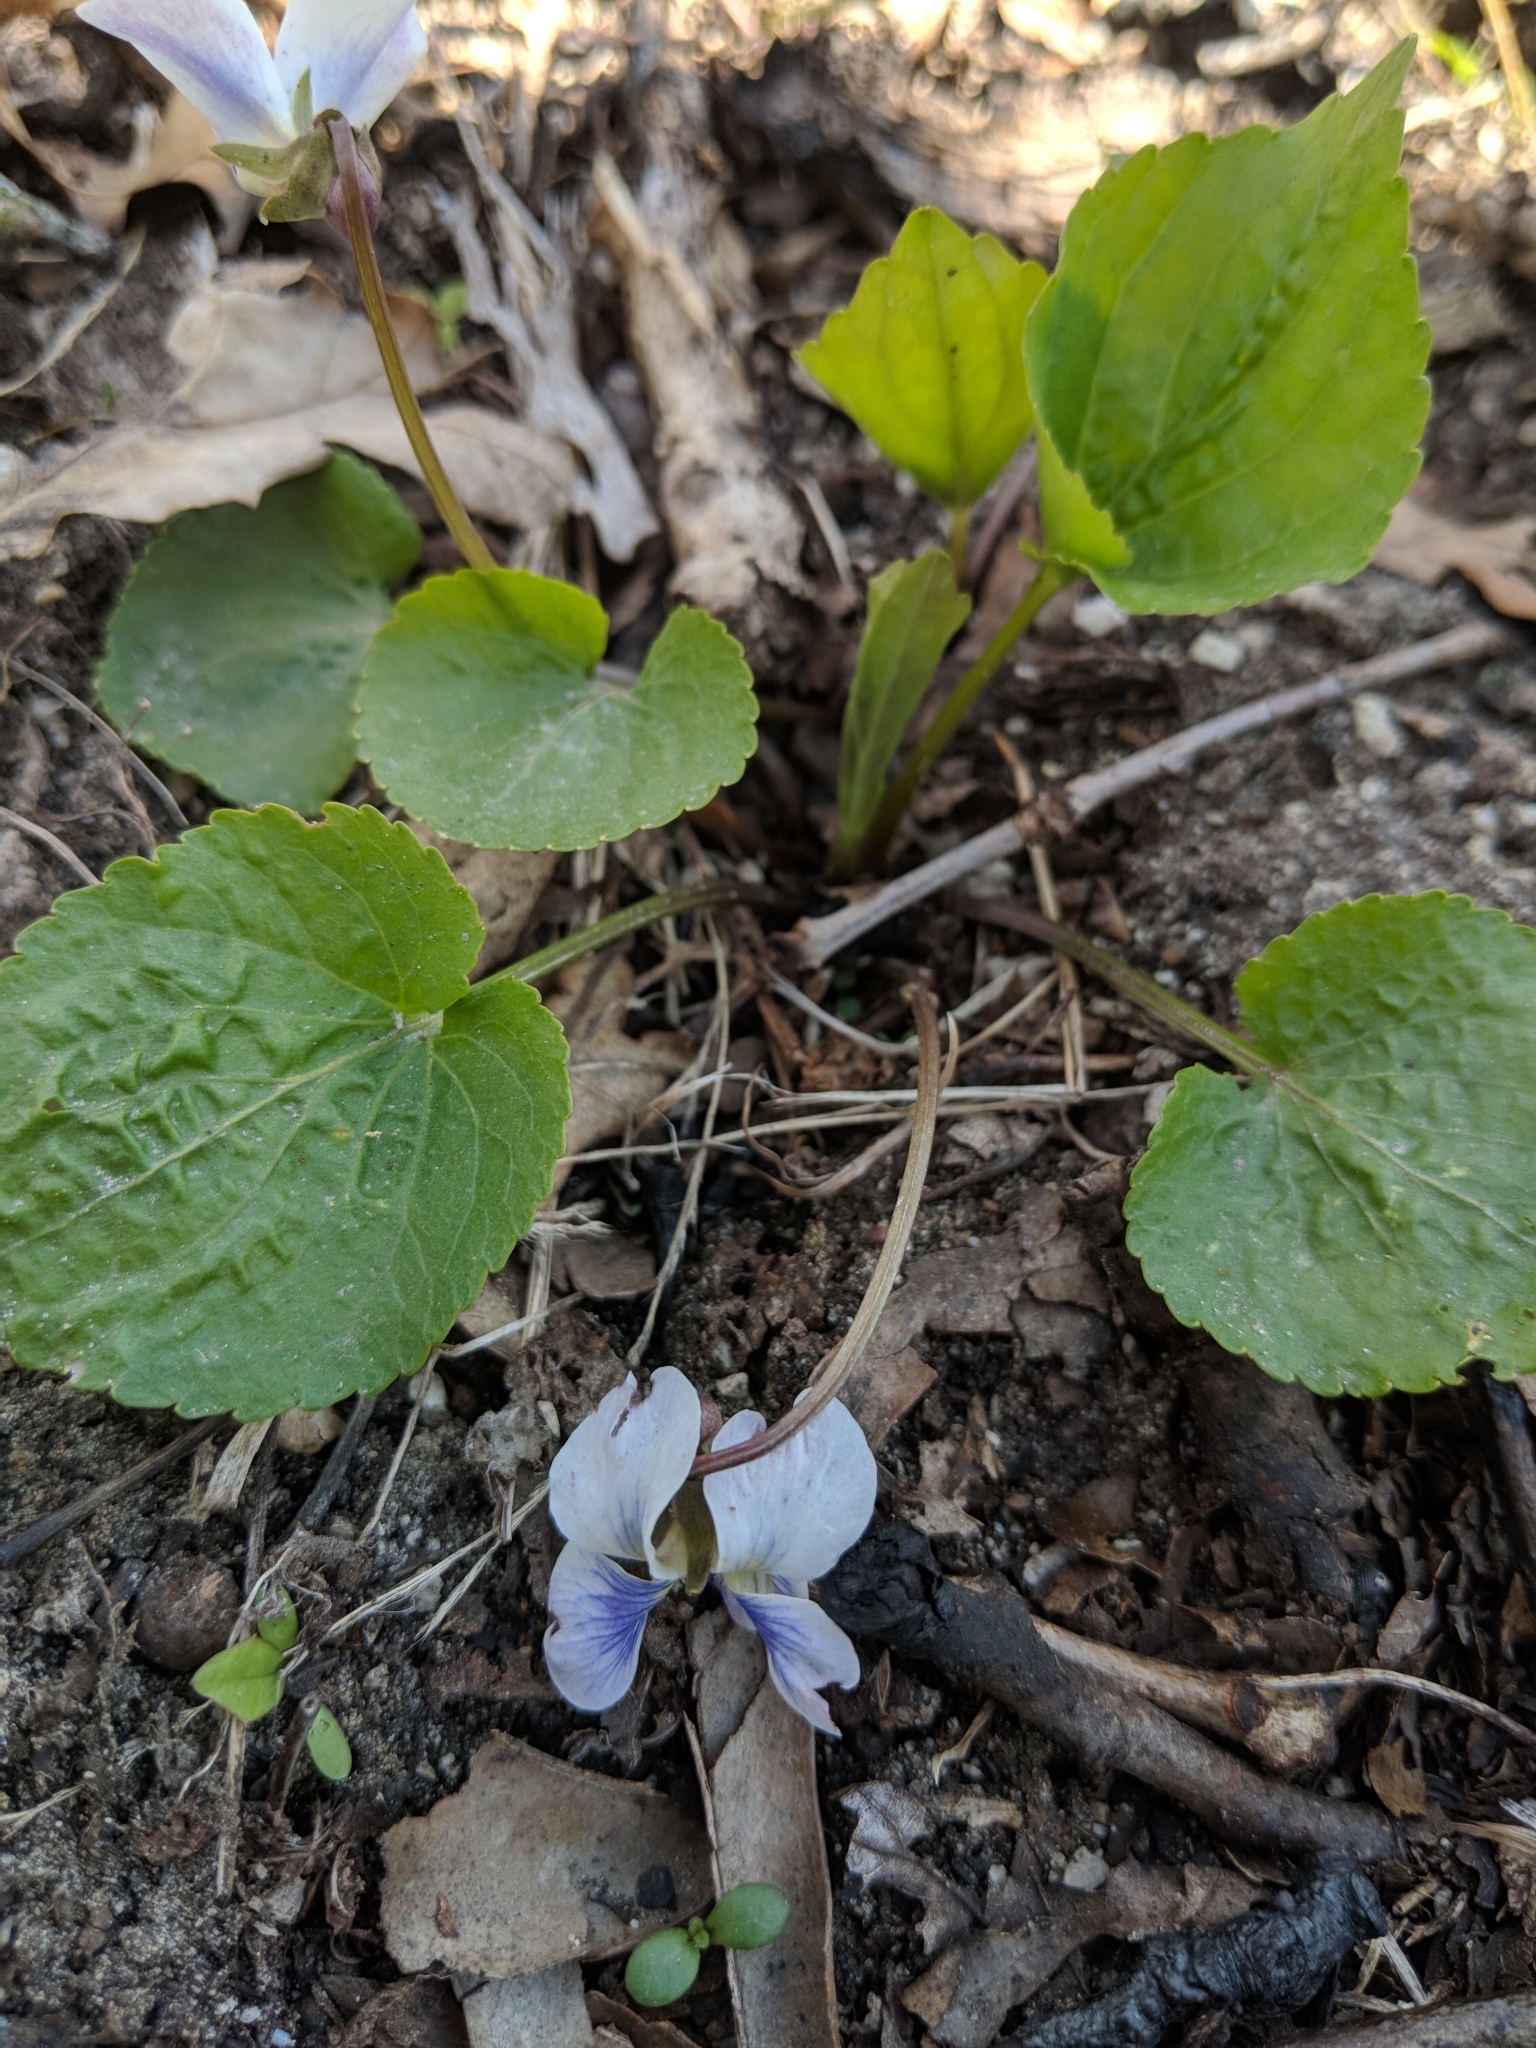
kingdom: Plantae
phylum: Tracheophyta
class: Magnoliopsida
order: Malpighiales
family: Violaceae
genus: Viola
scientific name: Viola sororia
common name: Dooryard violet
